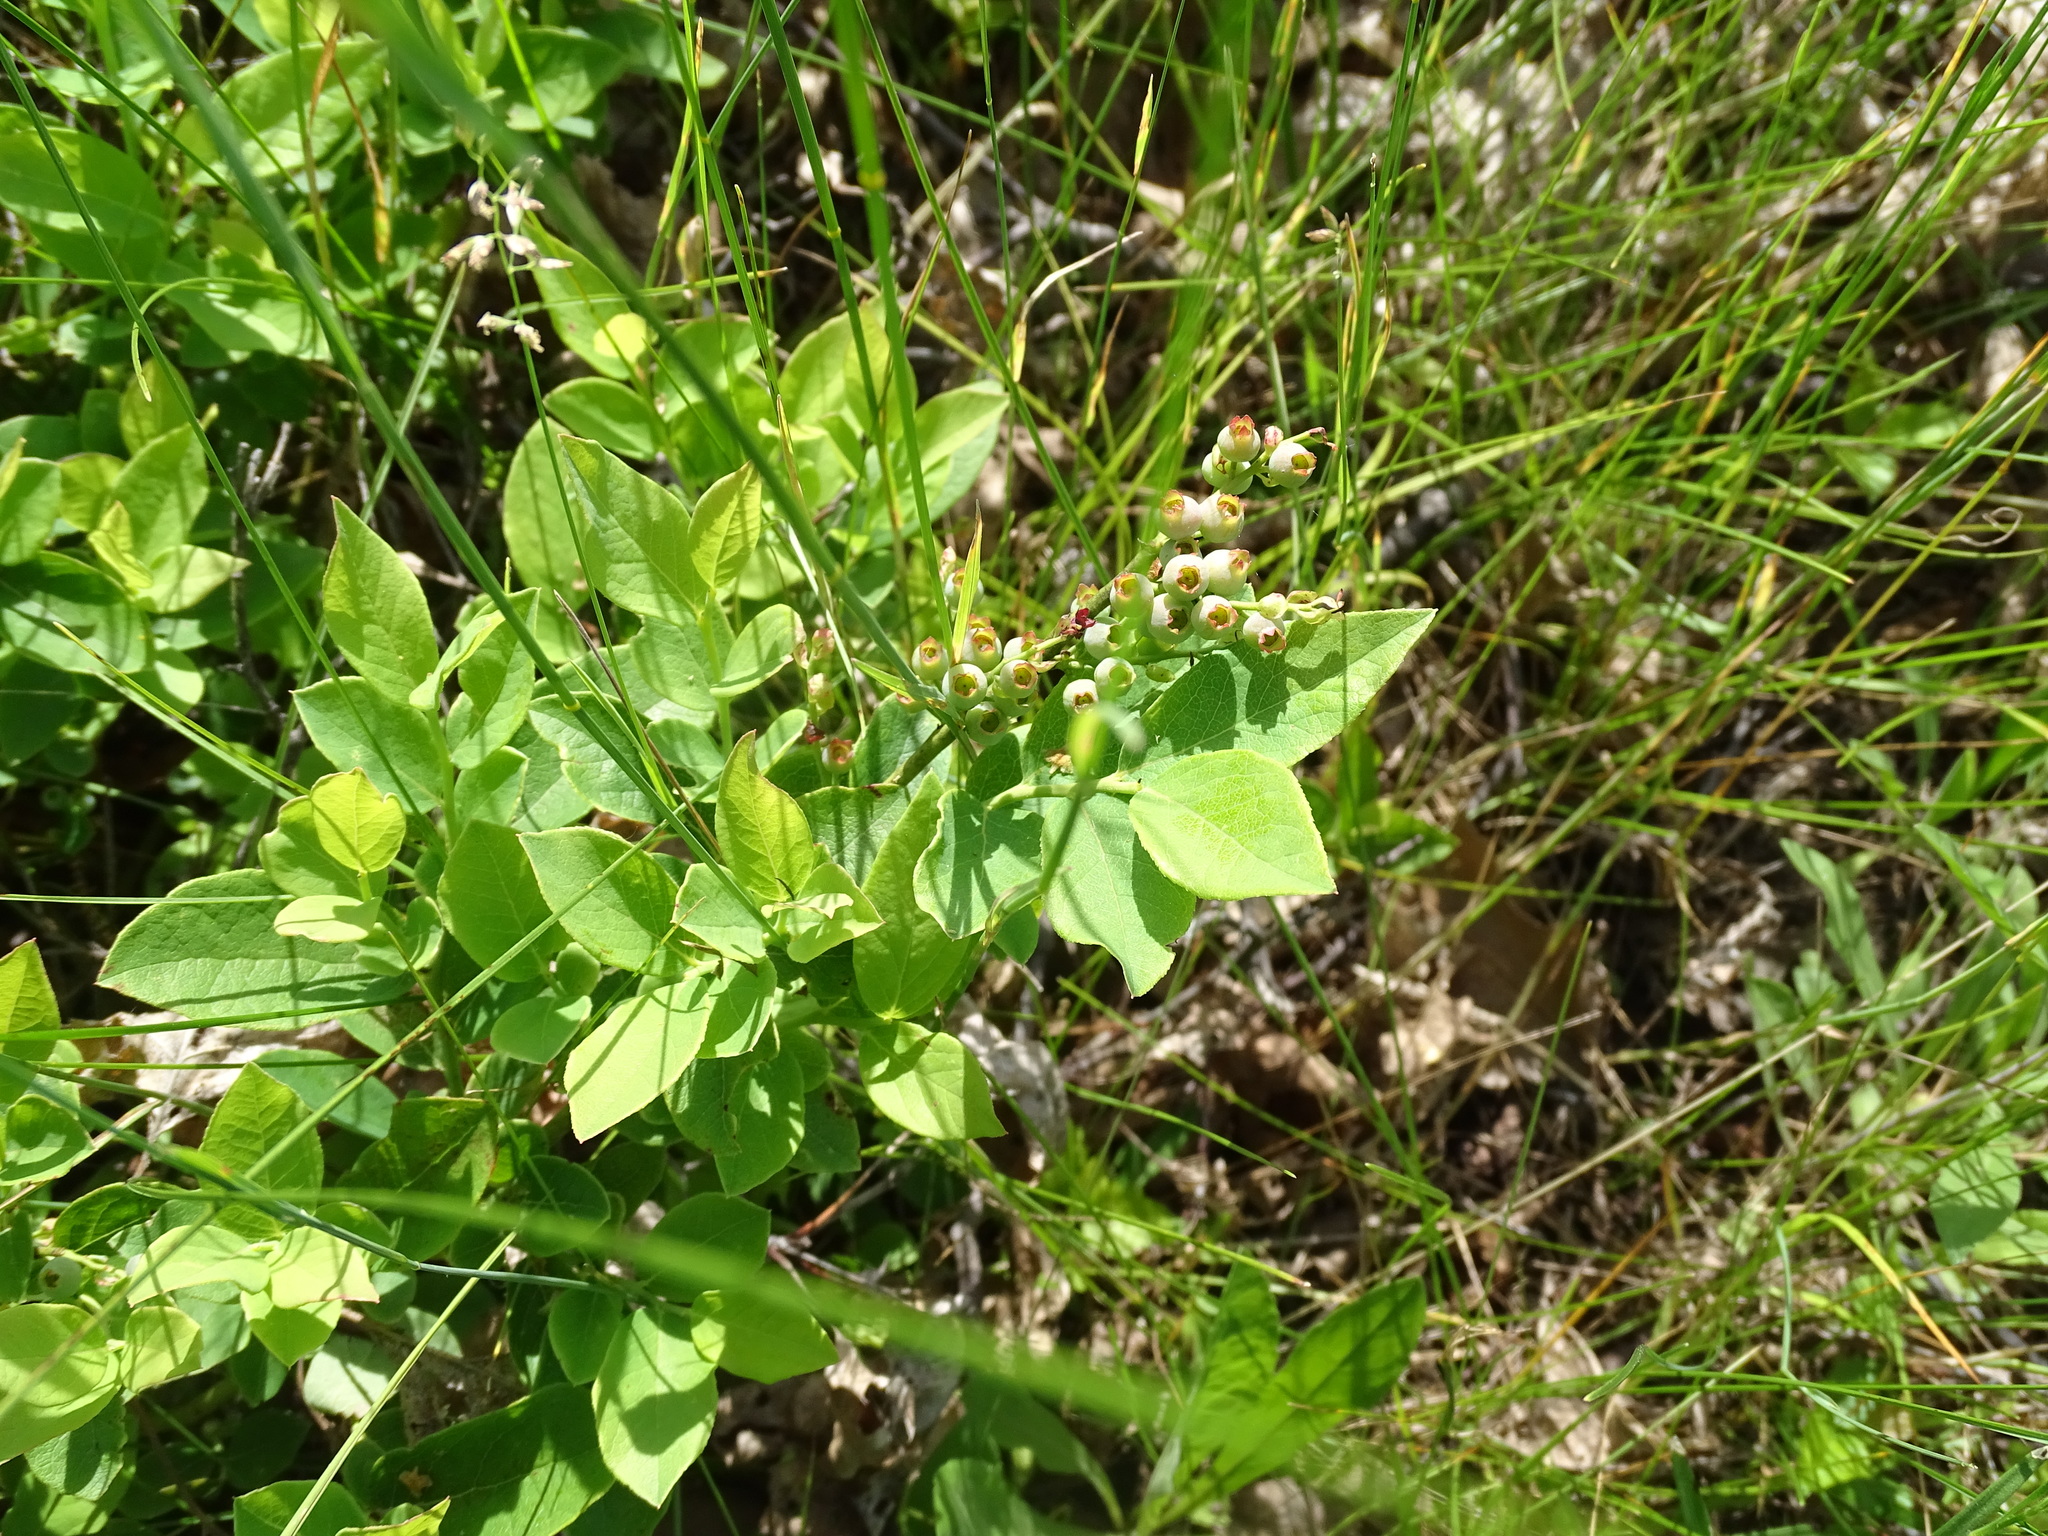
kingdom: Plantae
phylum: Tracheophyta
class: Magnoliopsida
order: Ericales
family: Ericaceae
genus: Vaccinium
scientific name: Vaccinium angustifolium
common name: Early lowbush blueberry
